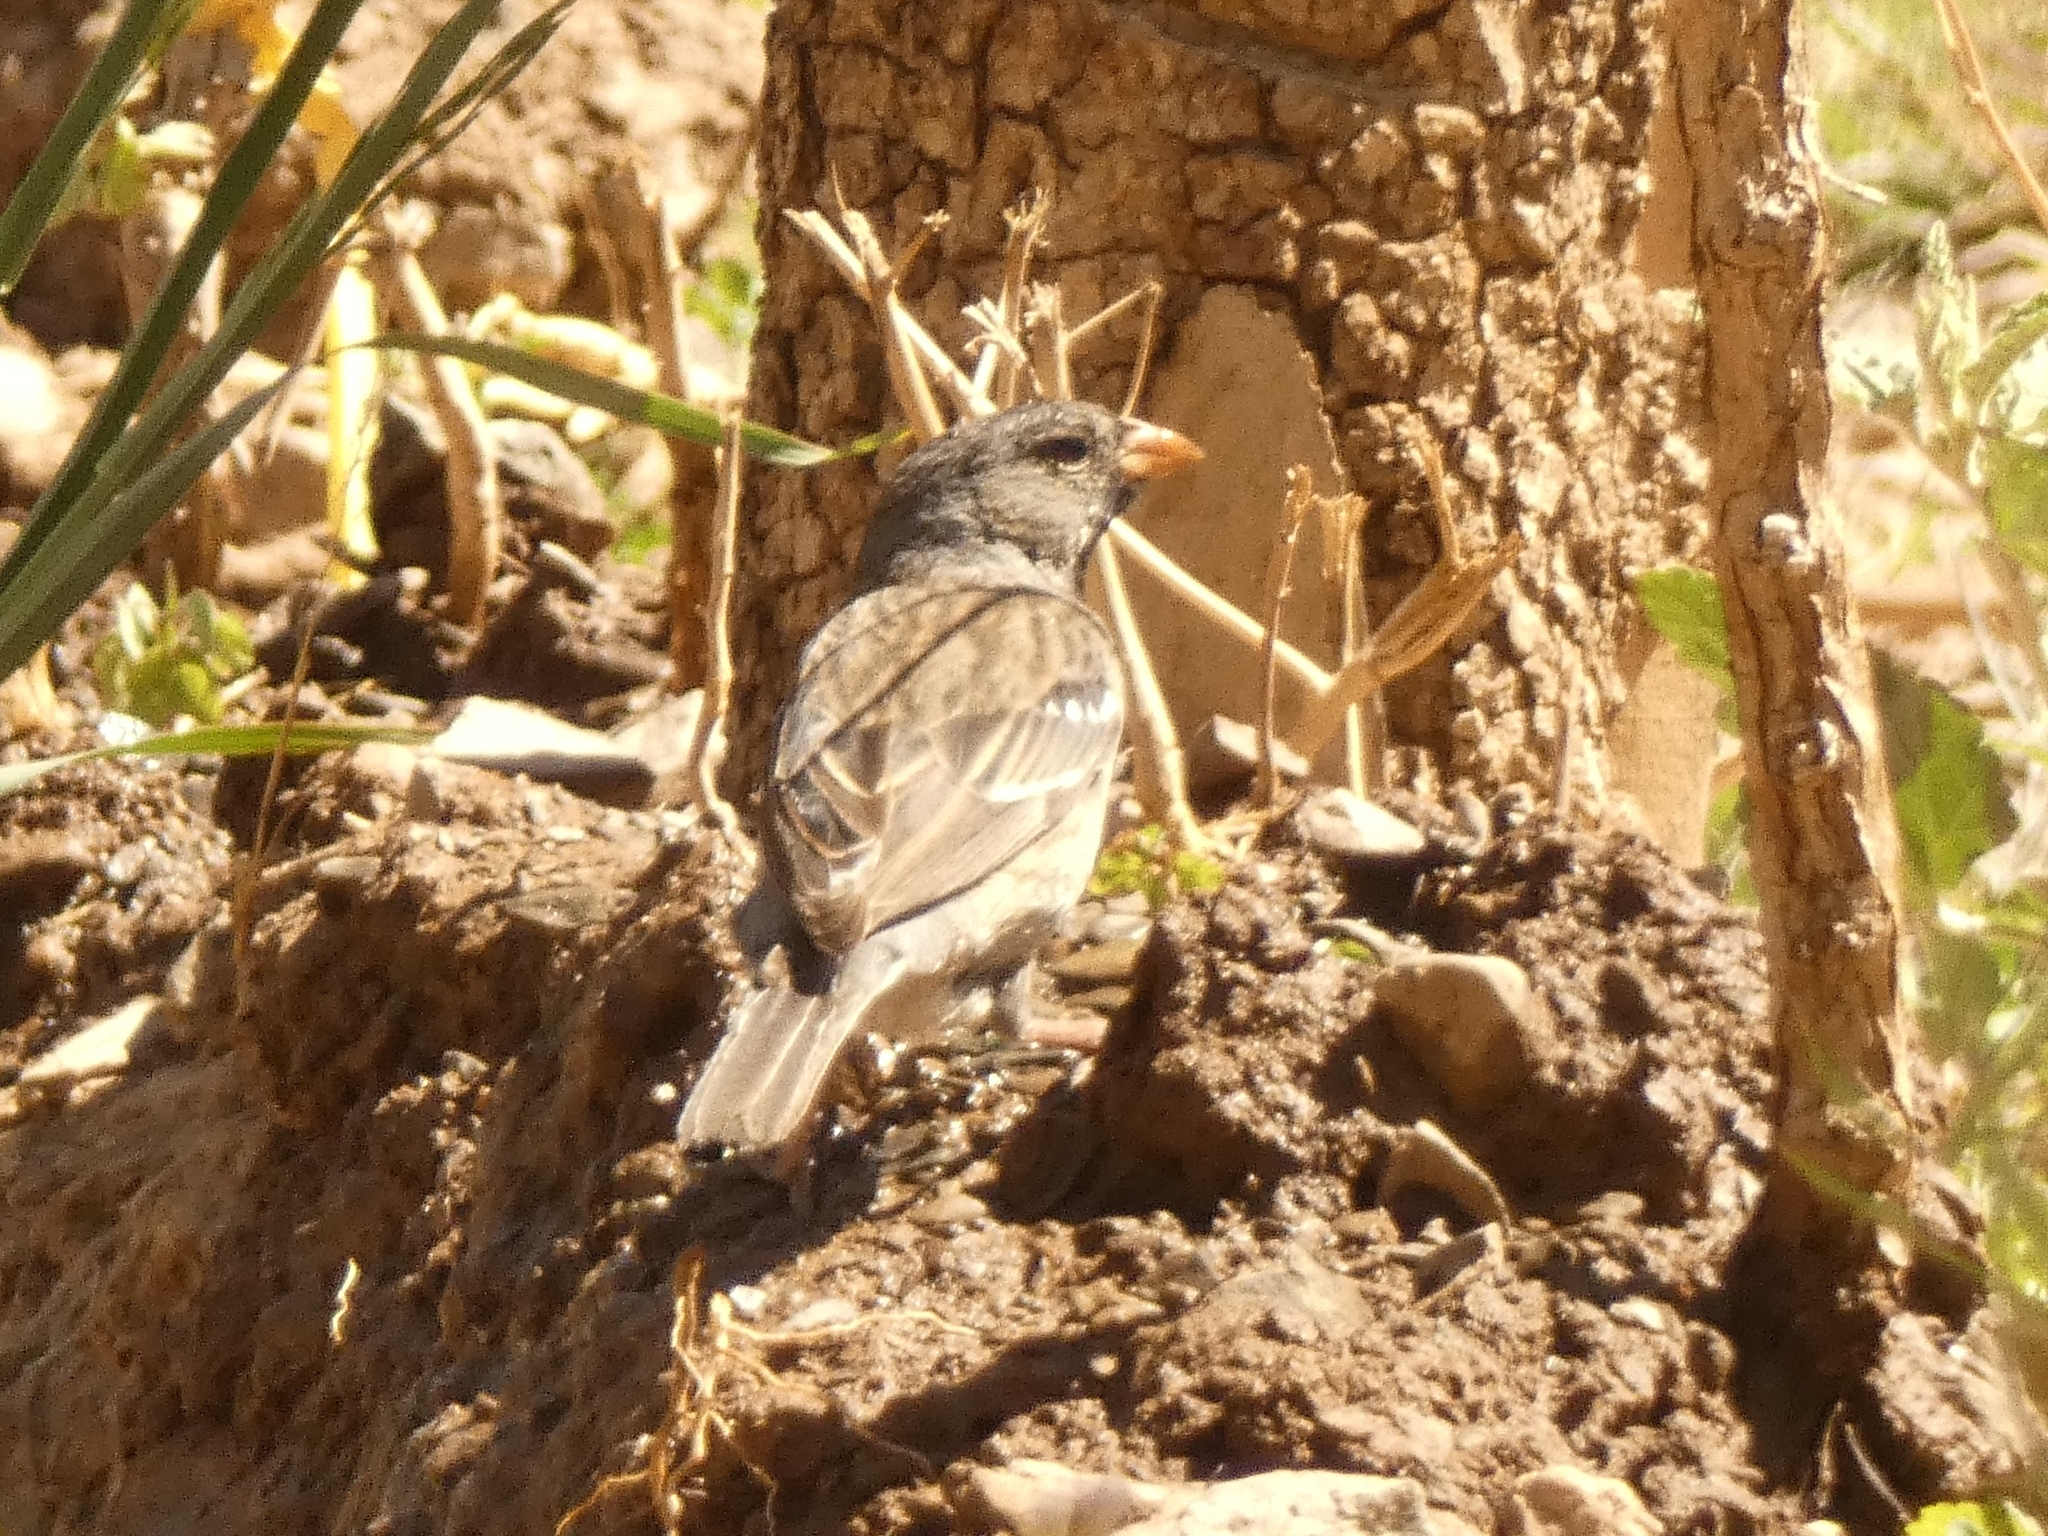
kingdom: Animalia
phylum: Chordata
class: Aves
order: Passeriformes
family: Thraupidae
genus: Rhopospina
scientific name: Rhopospina fruticeti
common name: Mourning sierra finch
